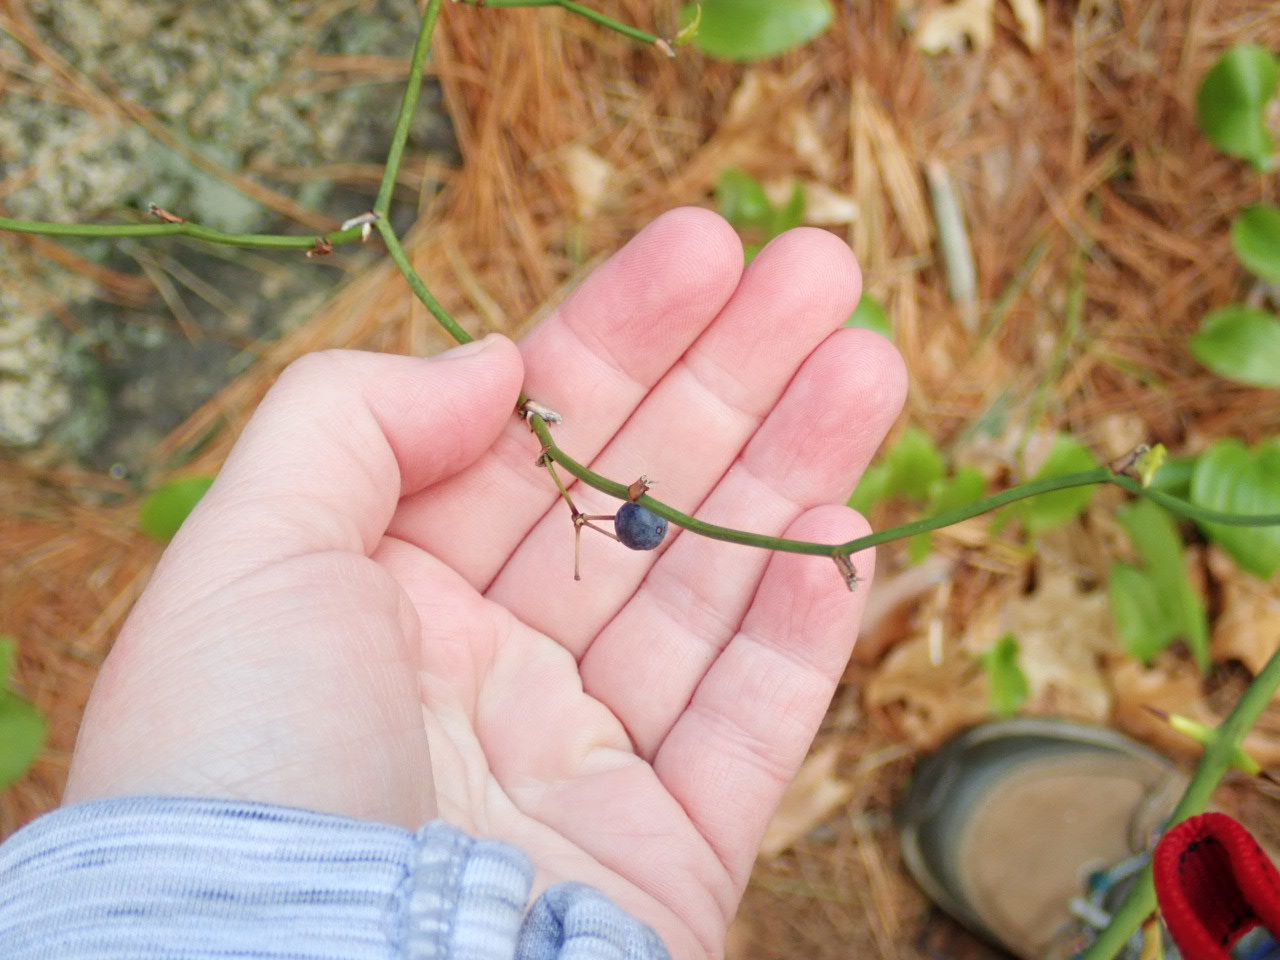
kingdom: Plantae
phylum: Tracheophyta
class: Liliopsida
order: Liliales
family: Smilacaceae
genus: Smilax
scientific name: Smilax rotundifolia
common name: Bullbriar
